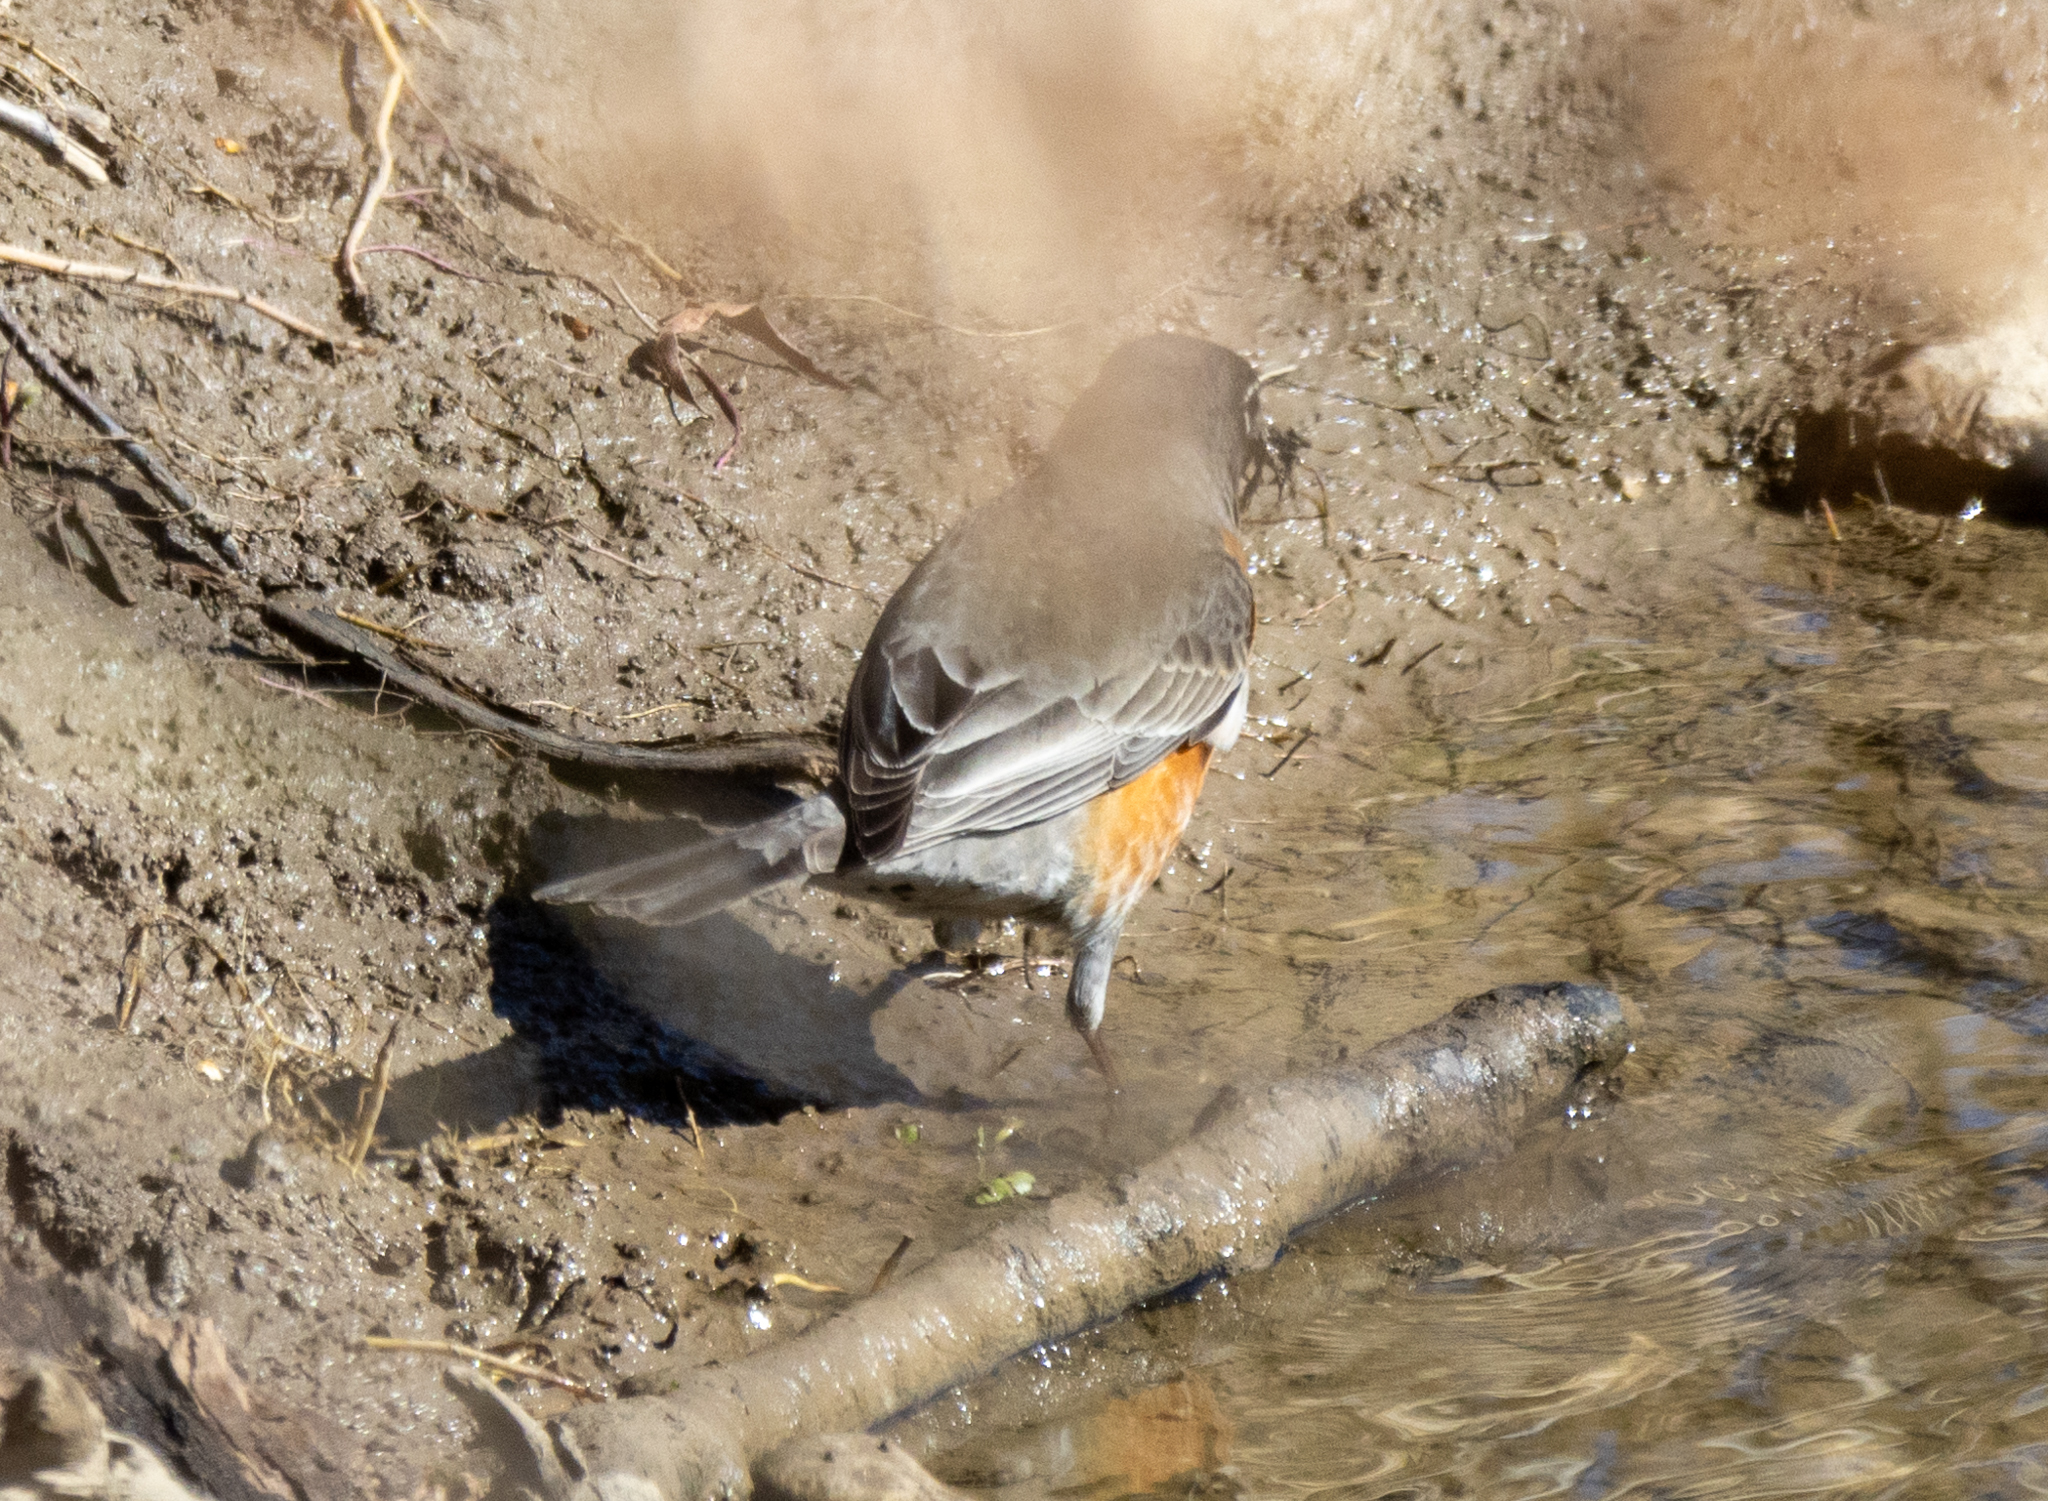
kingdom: Animalia
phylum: Chordata
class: Aves
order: Passeriformes
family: Turdidae
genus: Turdus
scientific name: Turdus migratorius
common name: American robin
